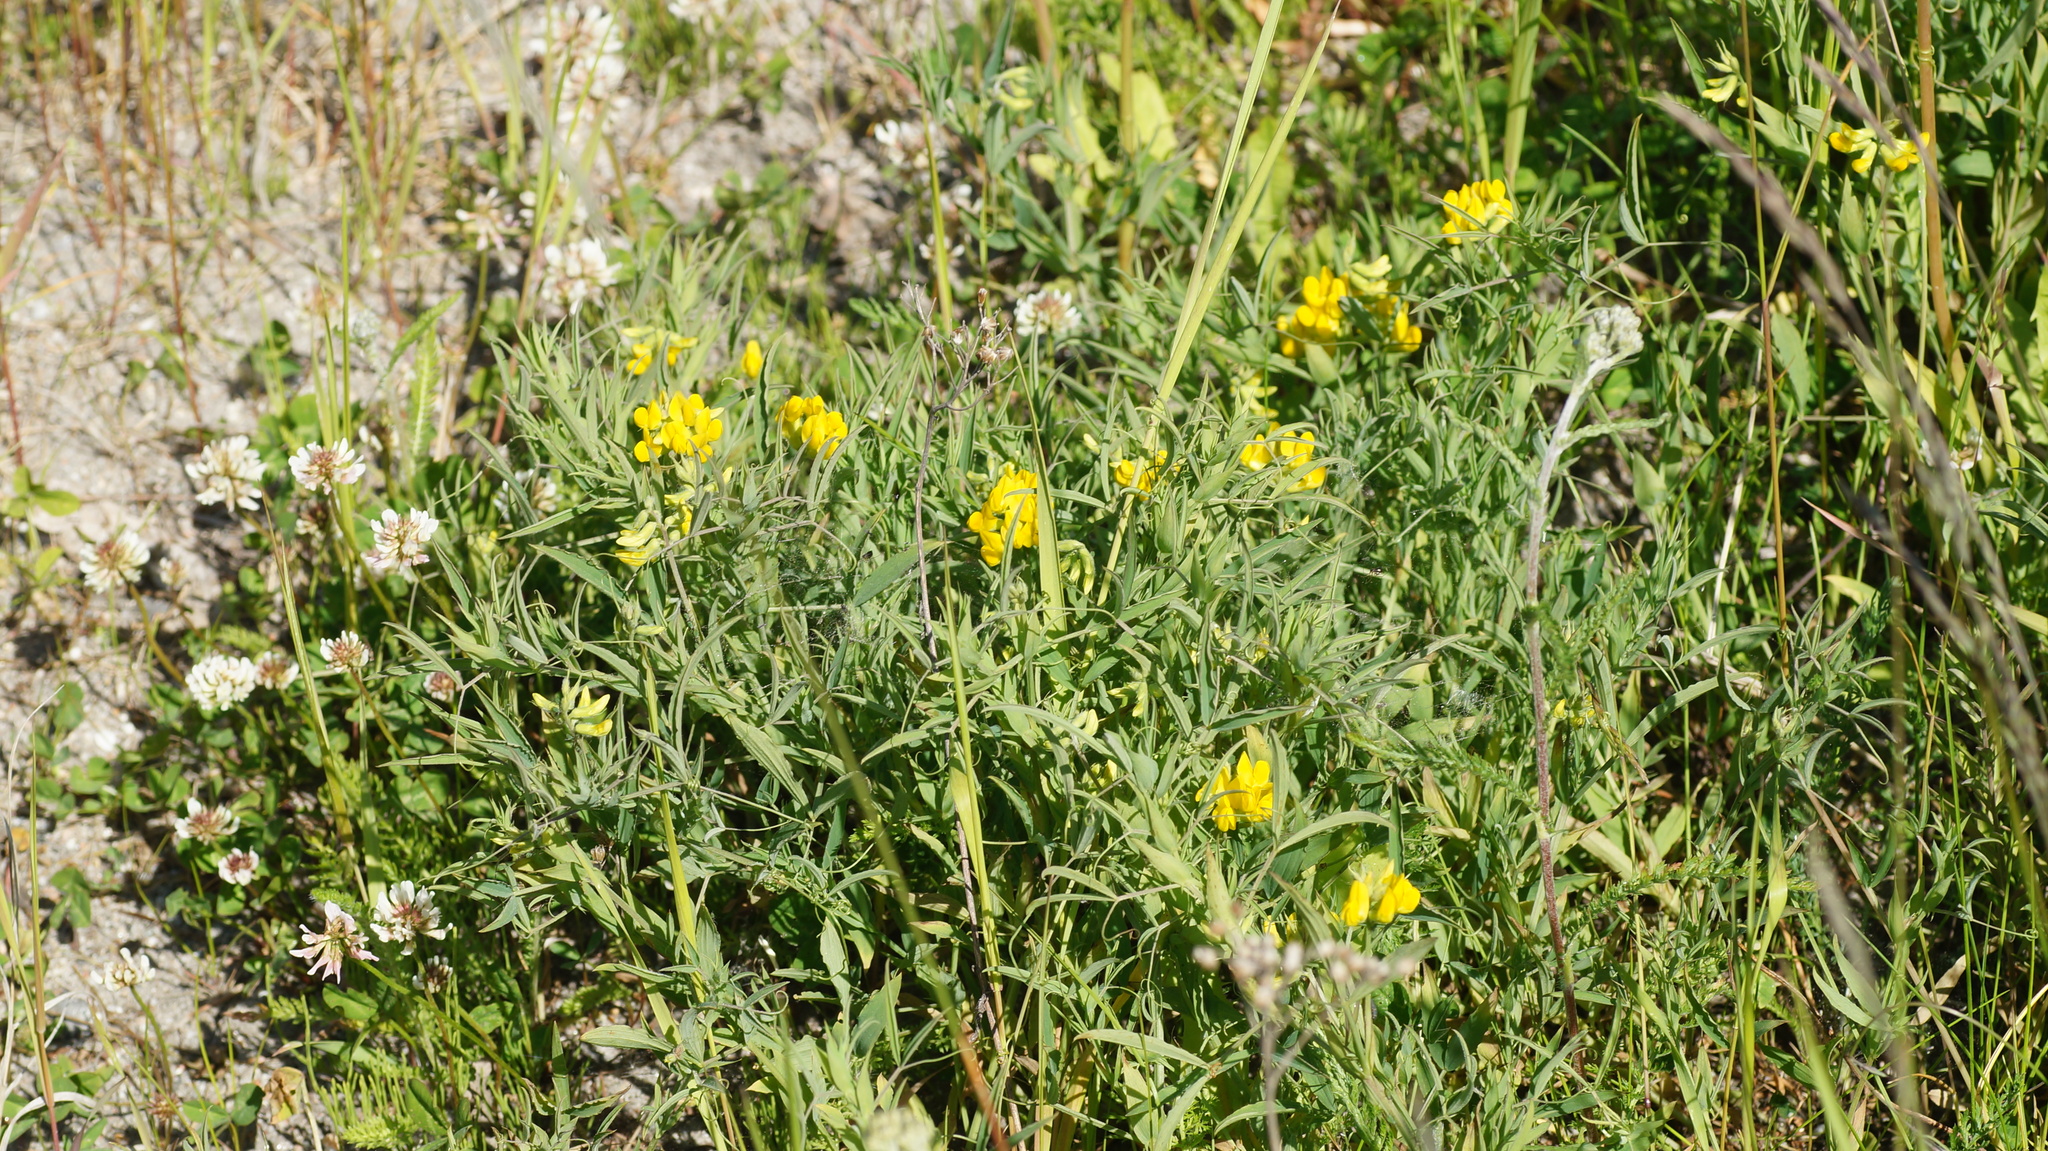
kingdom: Plantae
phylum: Tracheophyta
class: Magnoliopsida
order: Fabales
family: Fabaceae
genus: Lathyrus
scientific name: Lathyrus pratensis
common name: Meadow vetchling
